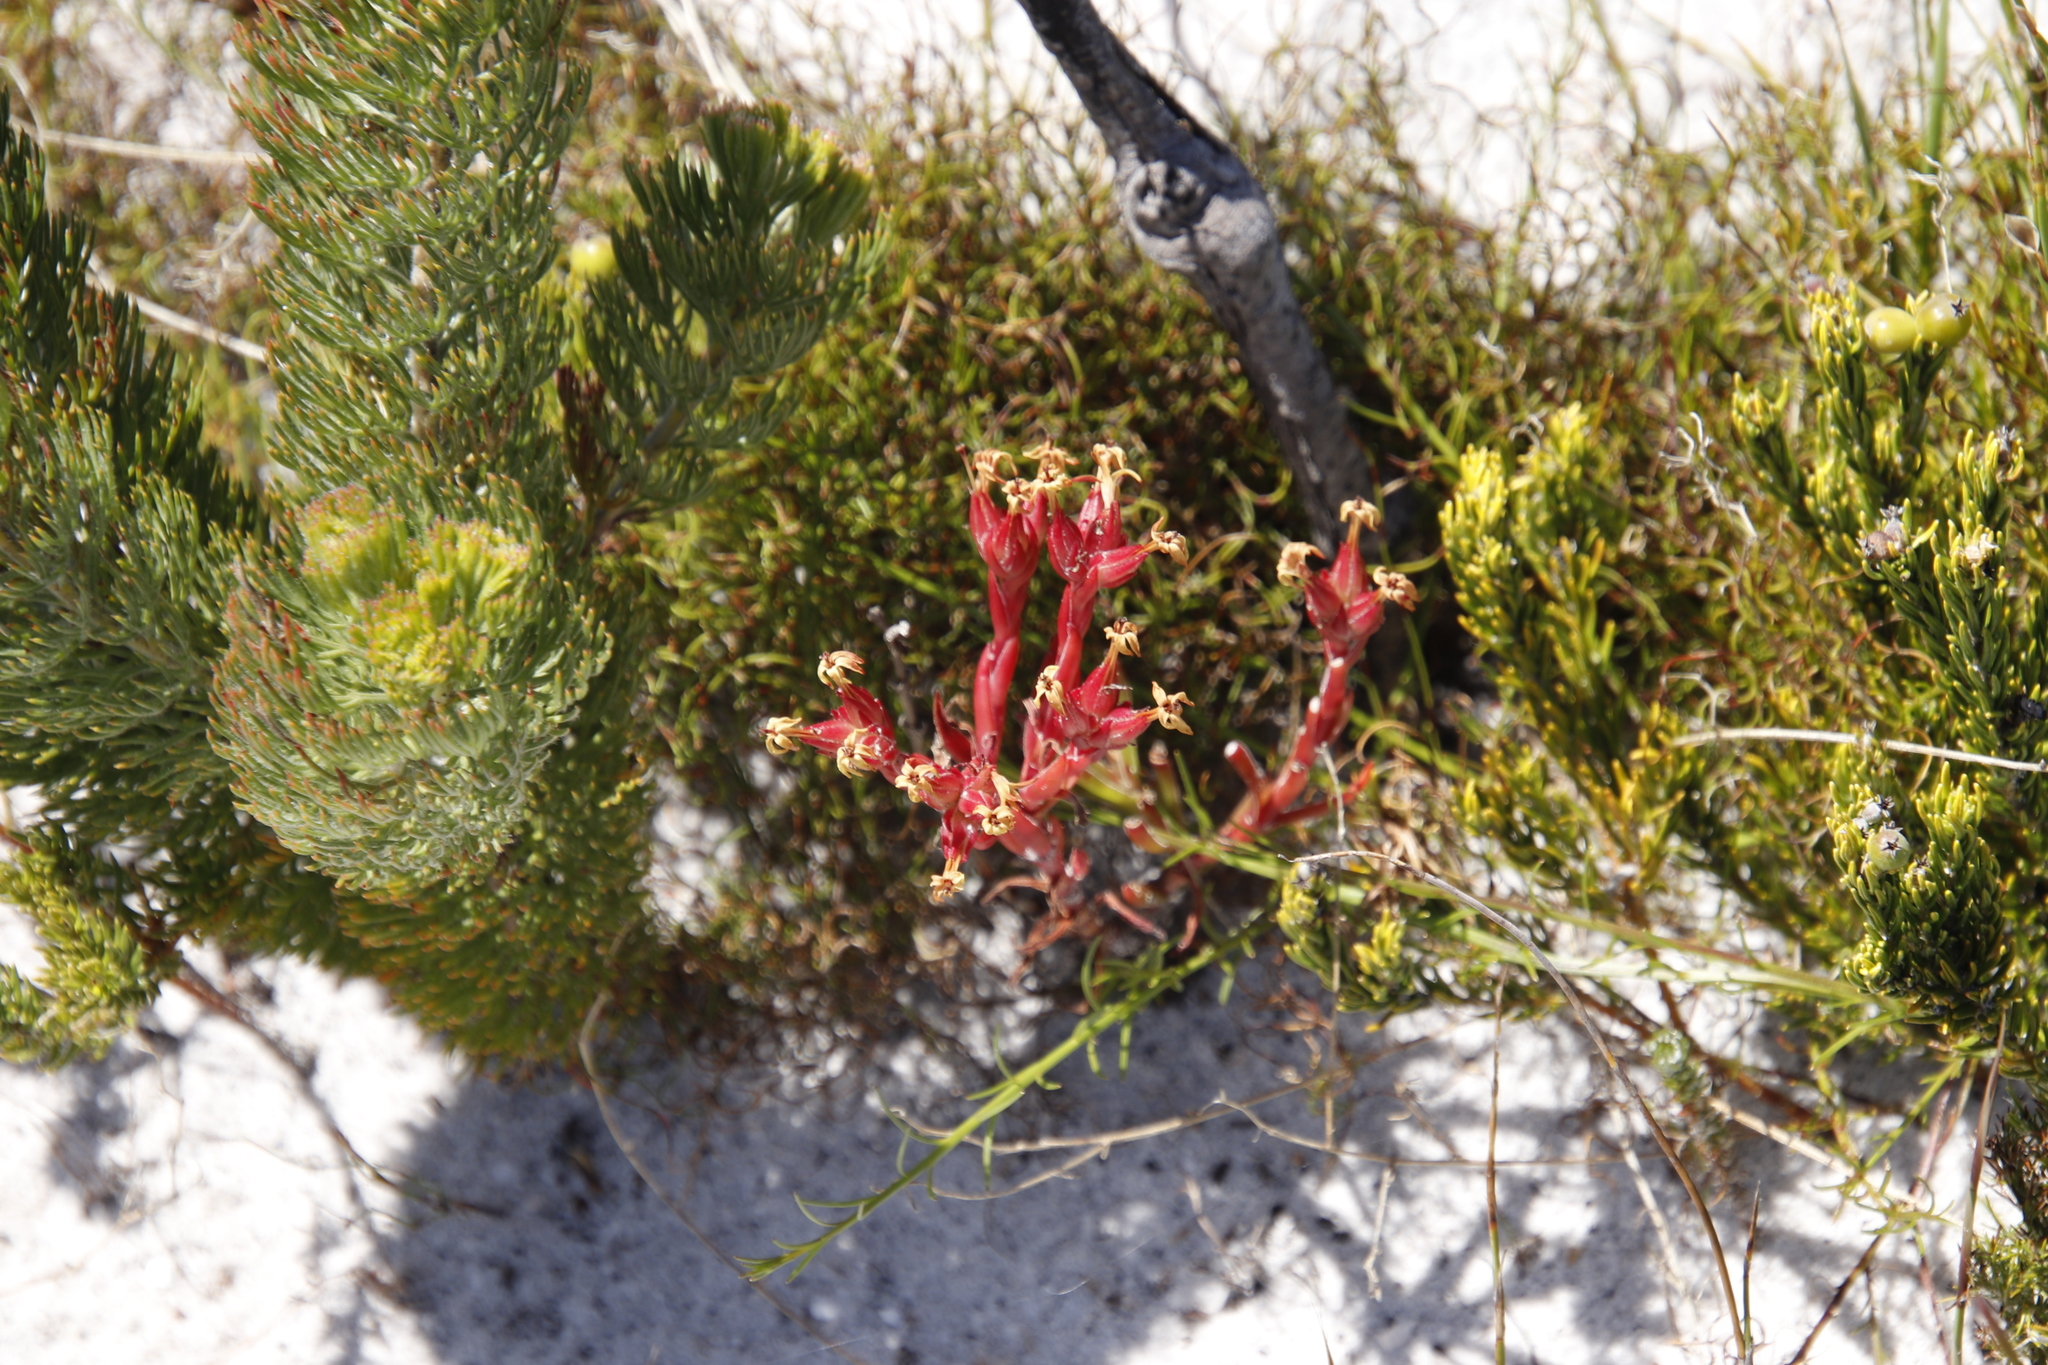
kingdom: Plantae
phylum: Tracheophyta
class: Magnoliopsida
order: Saxifragales
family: Crassulaceae
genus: Crassula
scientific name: Crassula fascicularis
